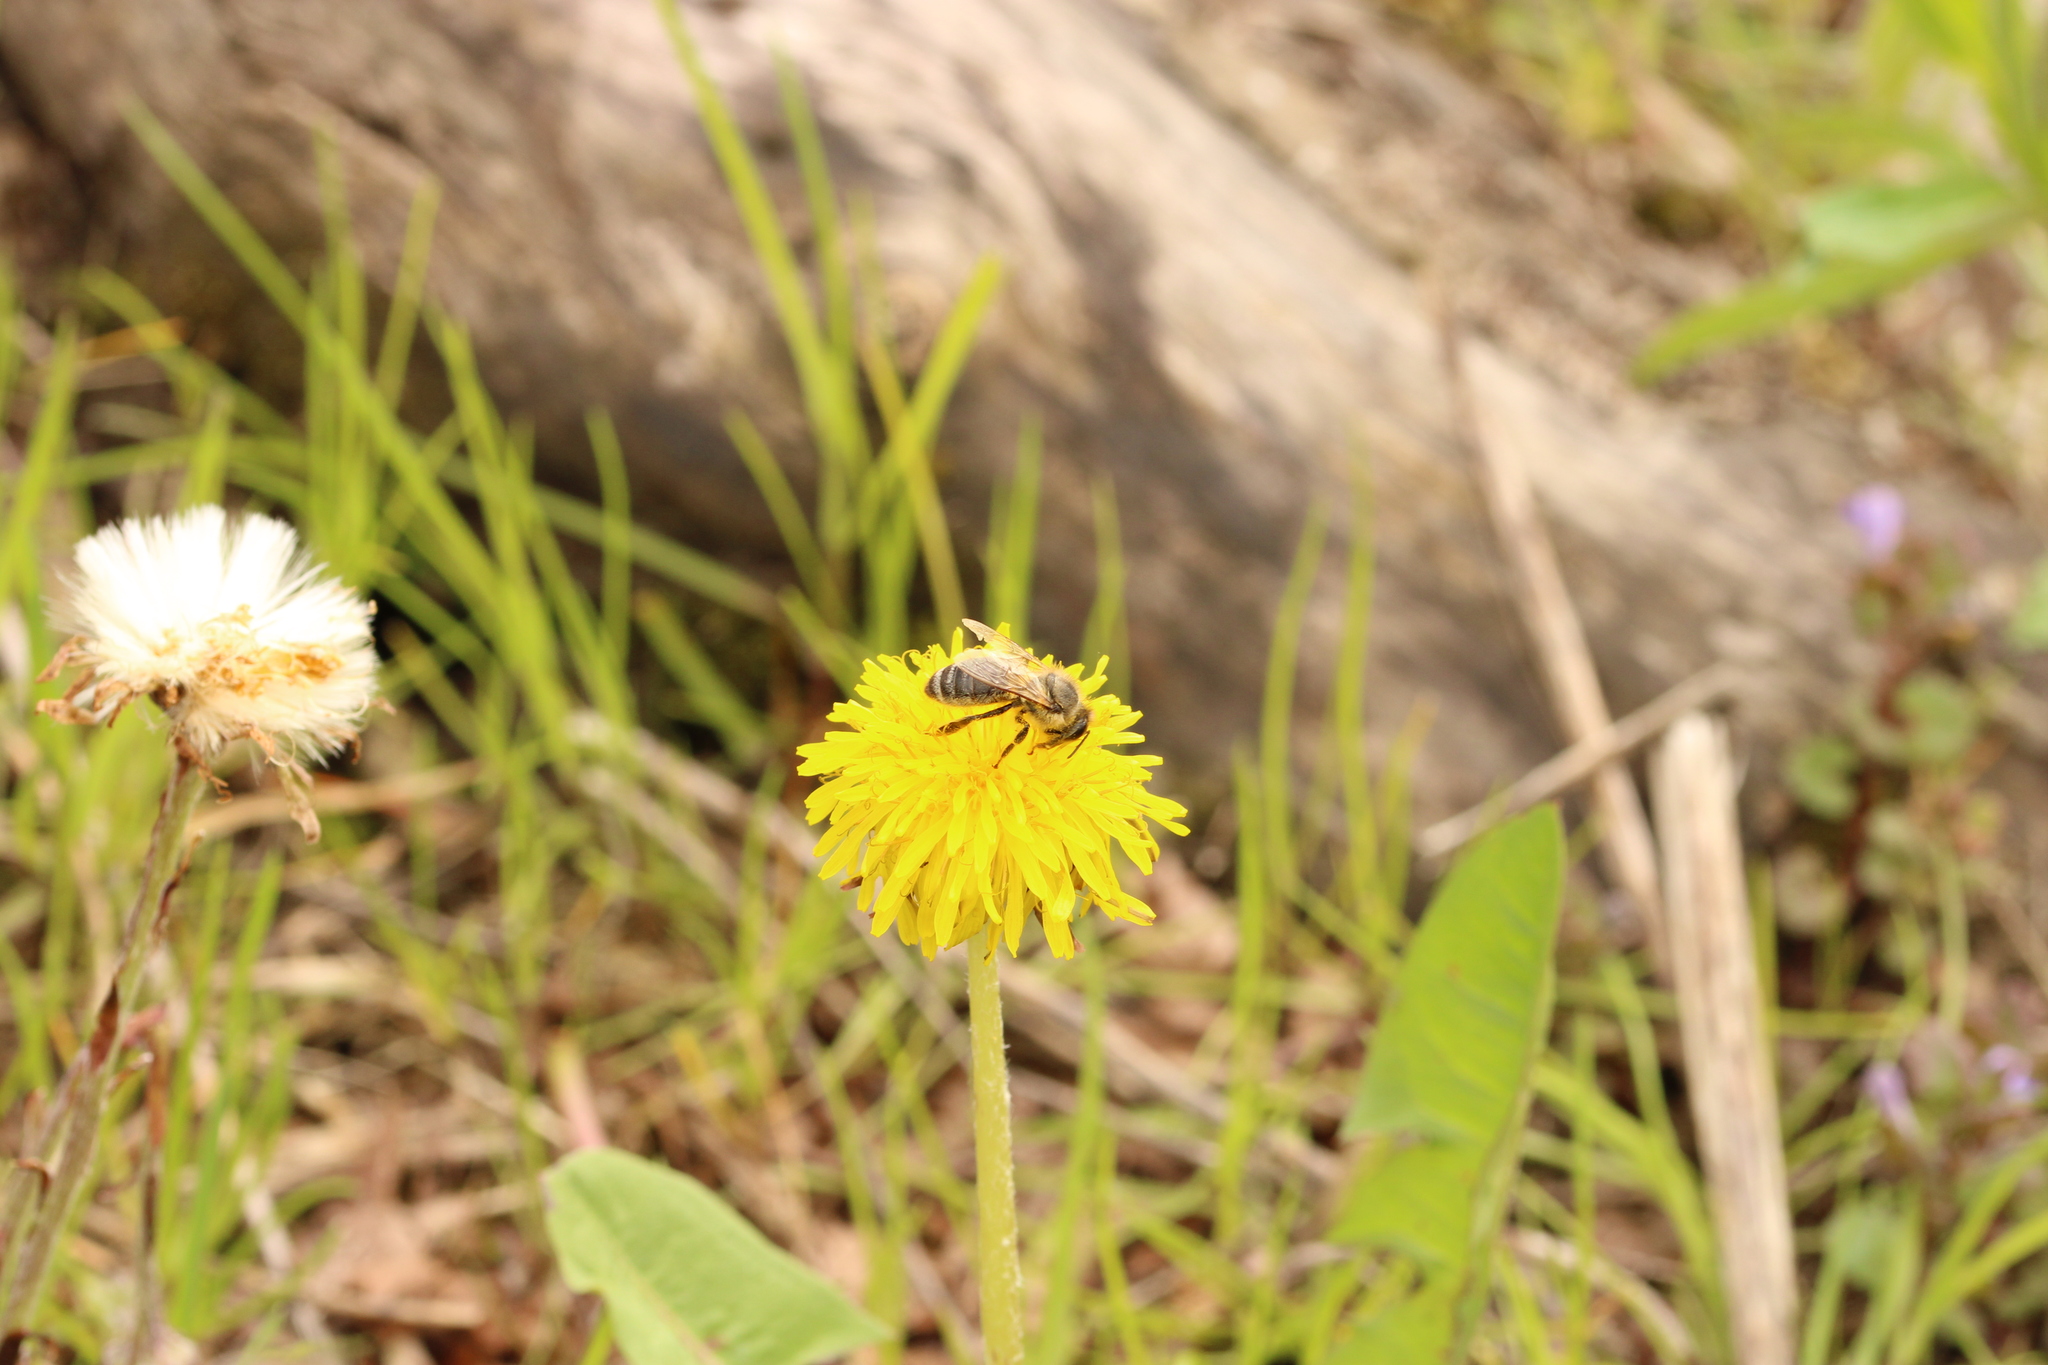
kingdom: Animalia
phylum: Arthropoda
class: Insecta
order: Hymenoptera
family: Apidae
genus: Apis
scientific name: Apis mellifera
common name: Honey bee
